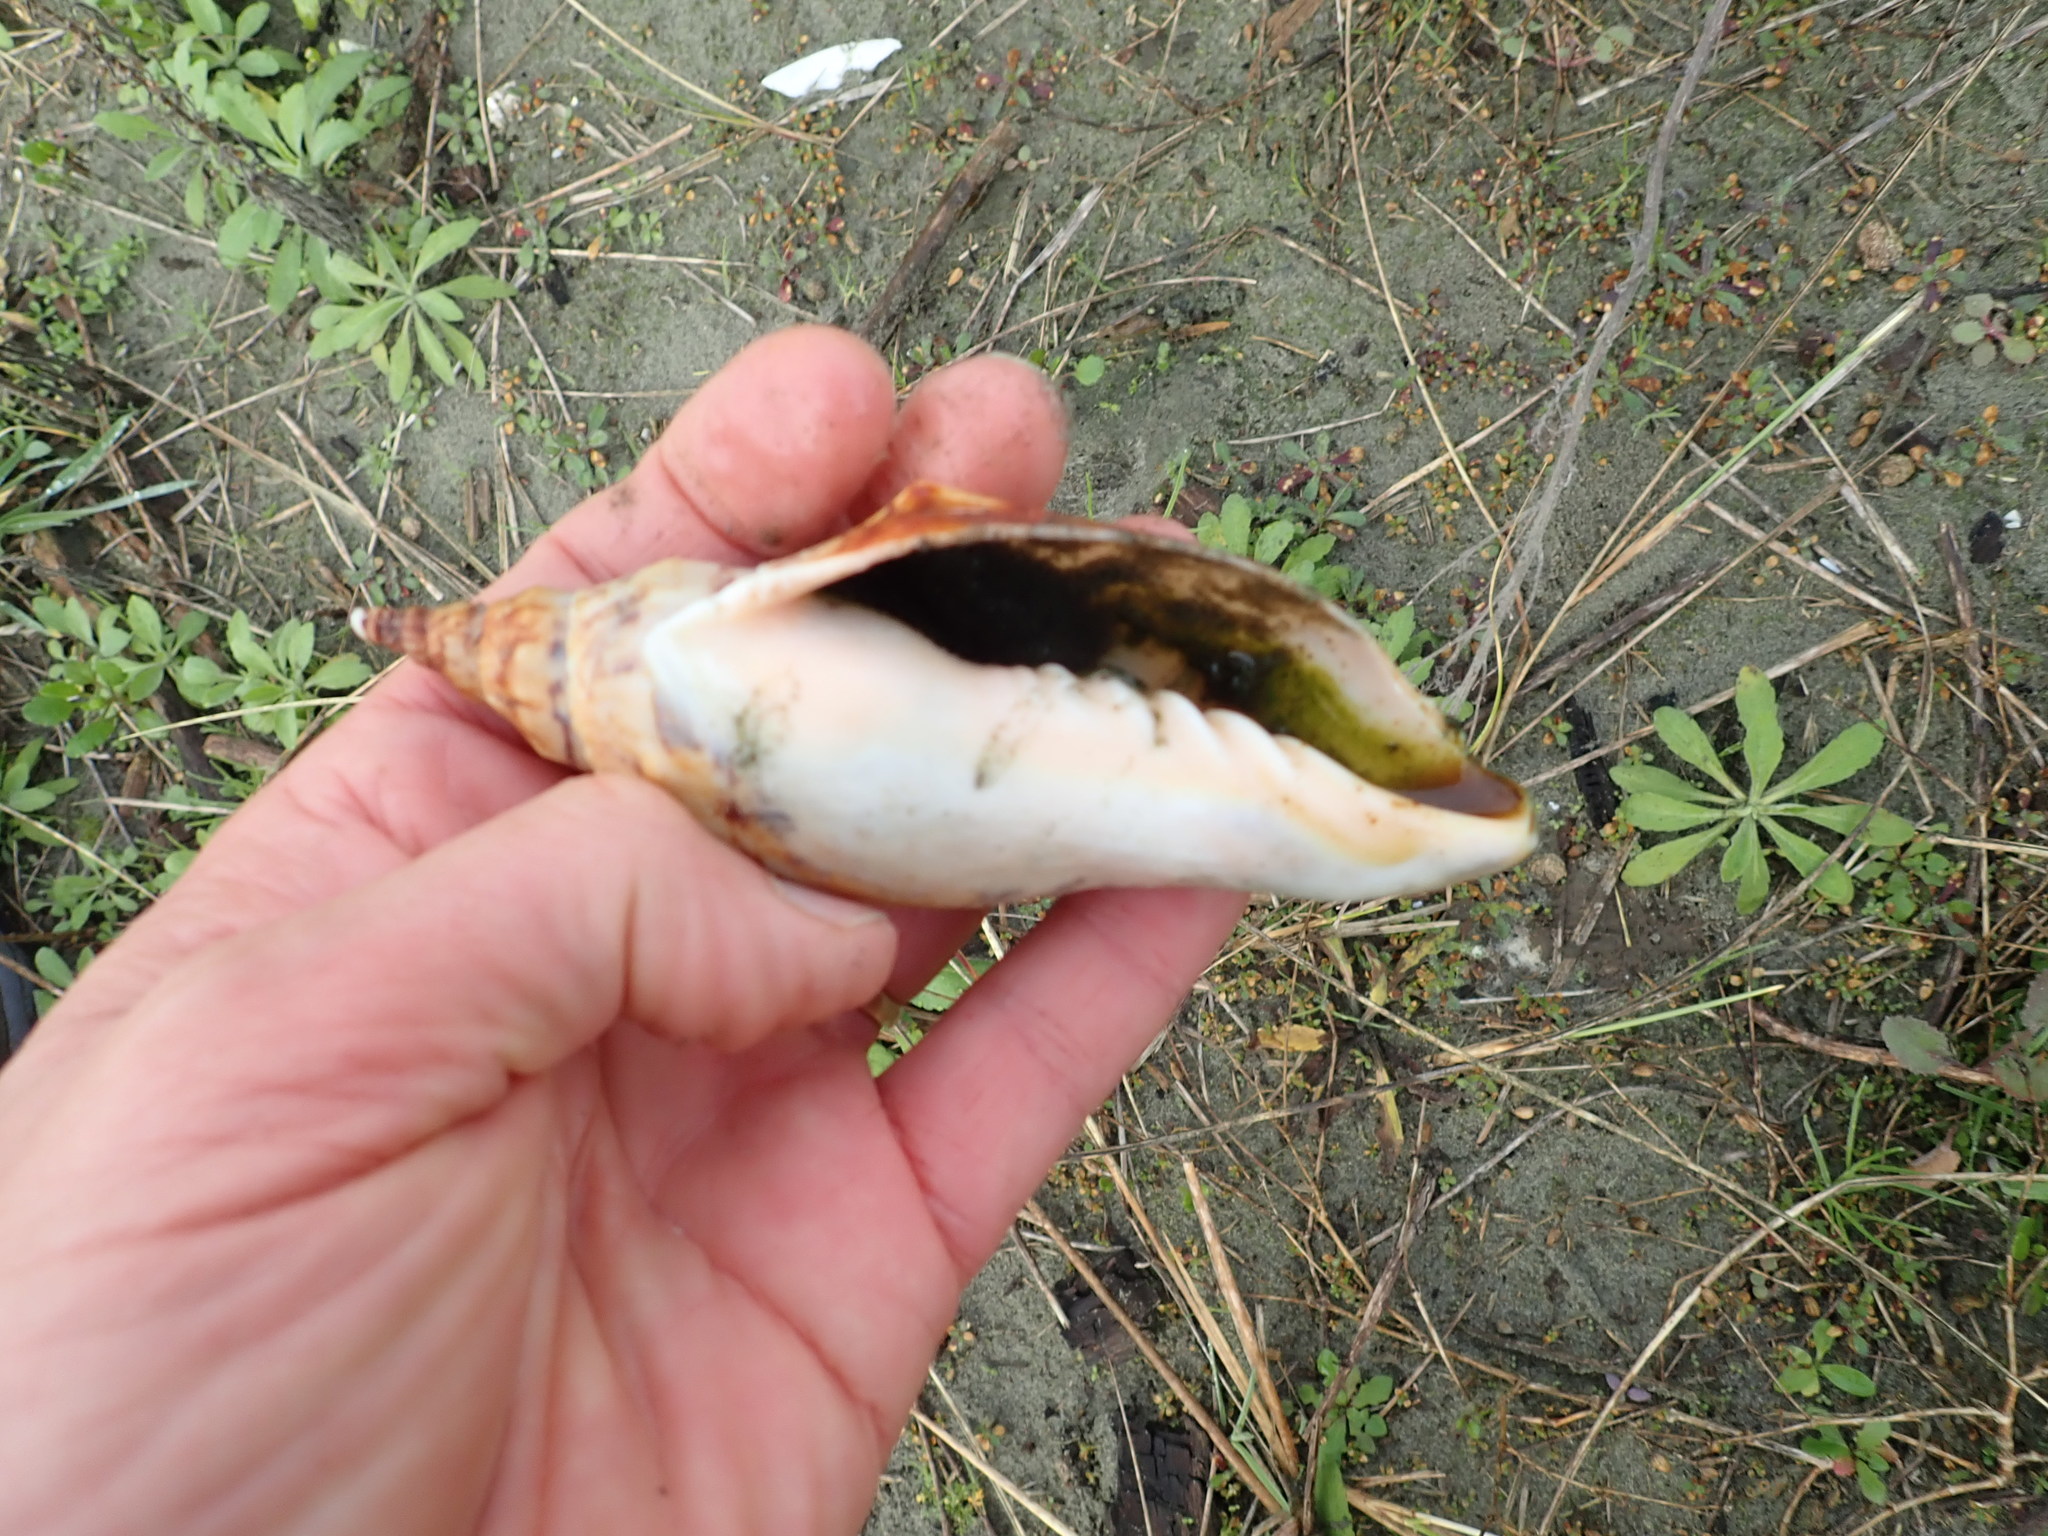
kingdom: Animalia
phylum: Mollusca
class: Gastropoda
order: Neogastropoda
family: Volutidae
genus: Alcithoe
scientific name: Alcithoe arabica
